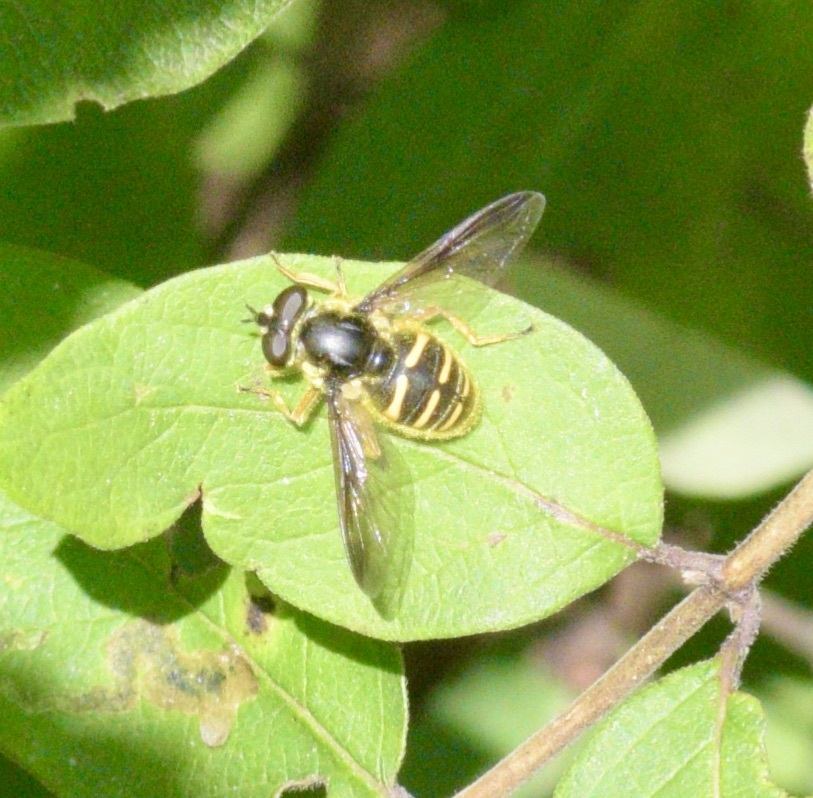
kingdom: Animalia
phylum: Arthropoda
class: Insecta
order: Diptera
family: Syrphidae
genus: Sericomyia
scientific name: Sericomyia chrysotoxoides
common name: Oblique-banded pond fly
